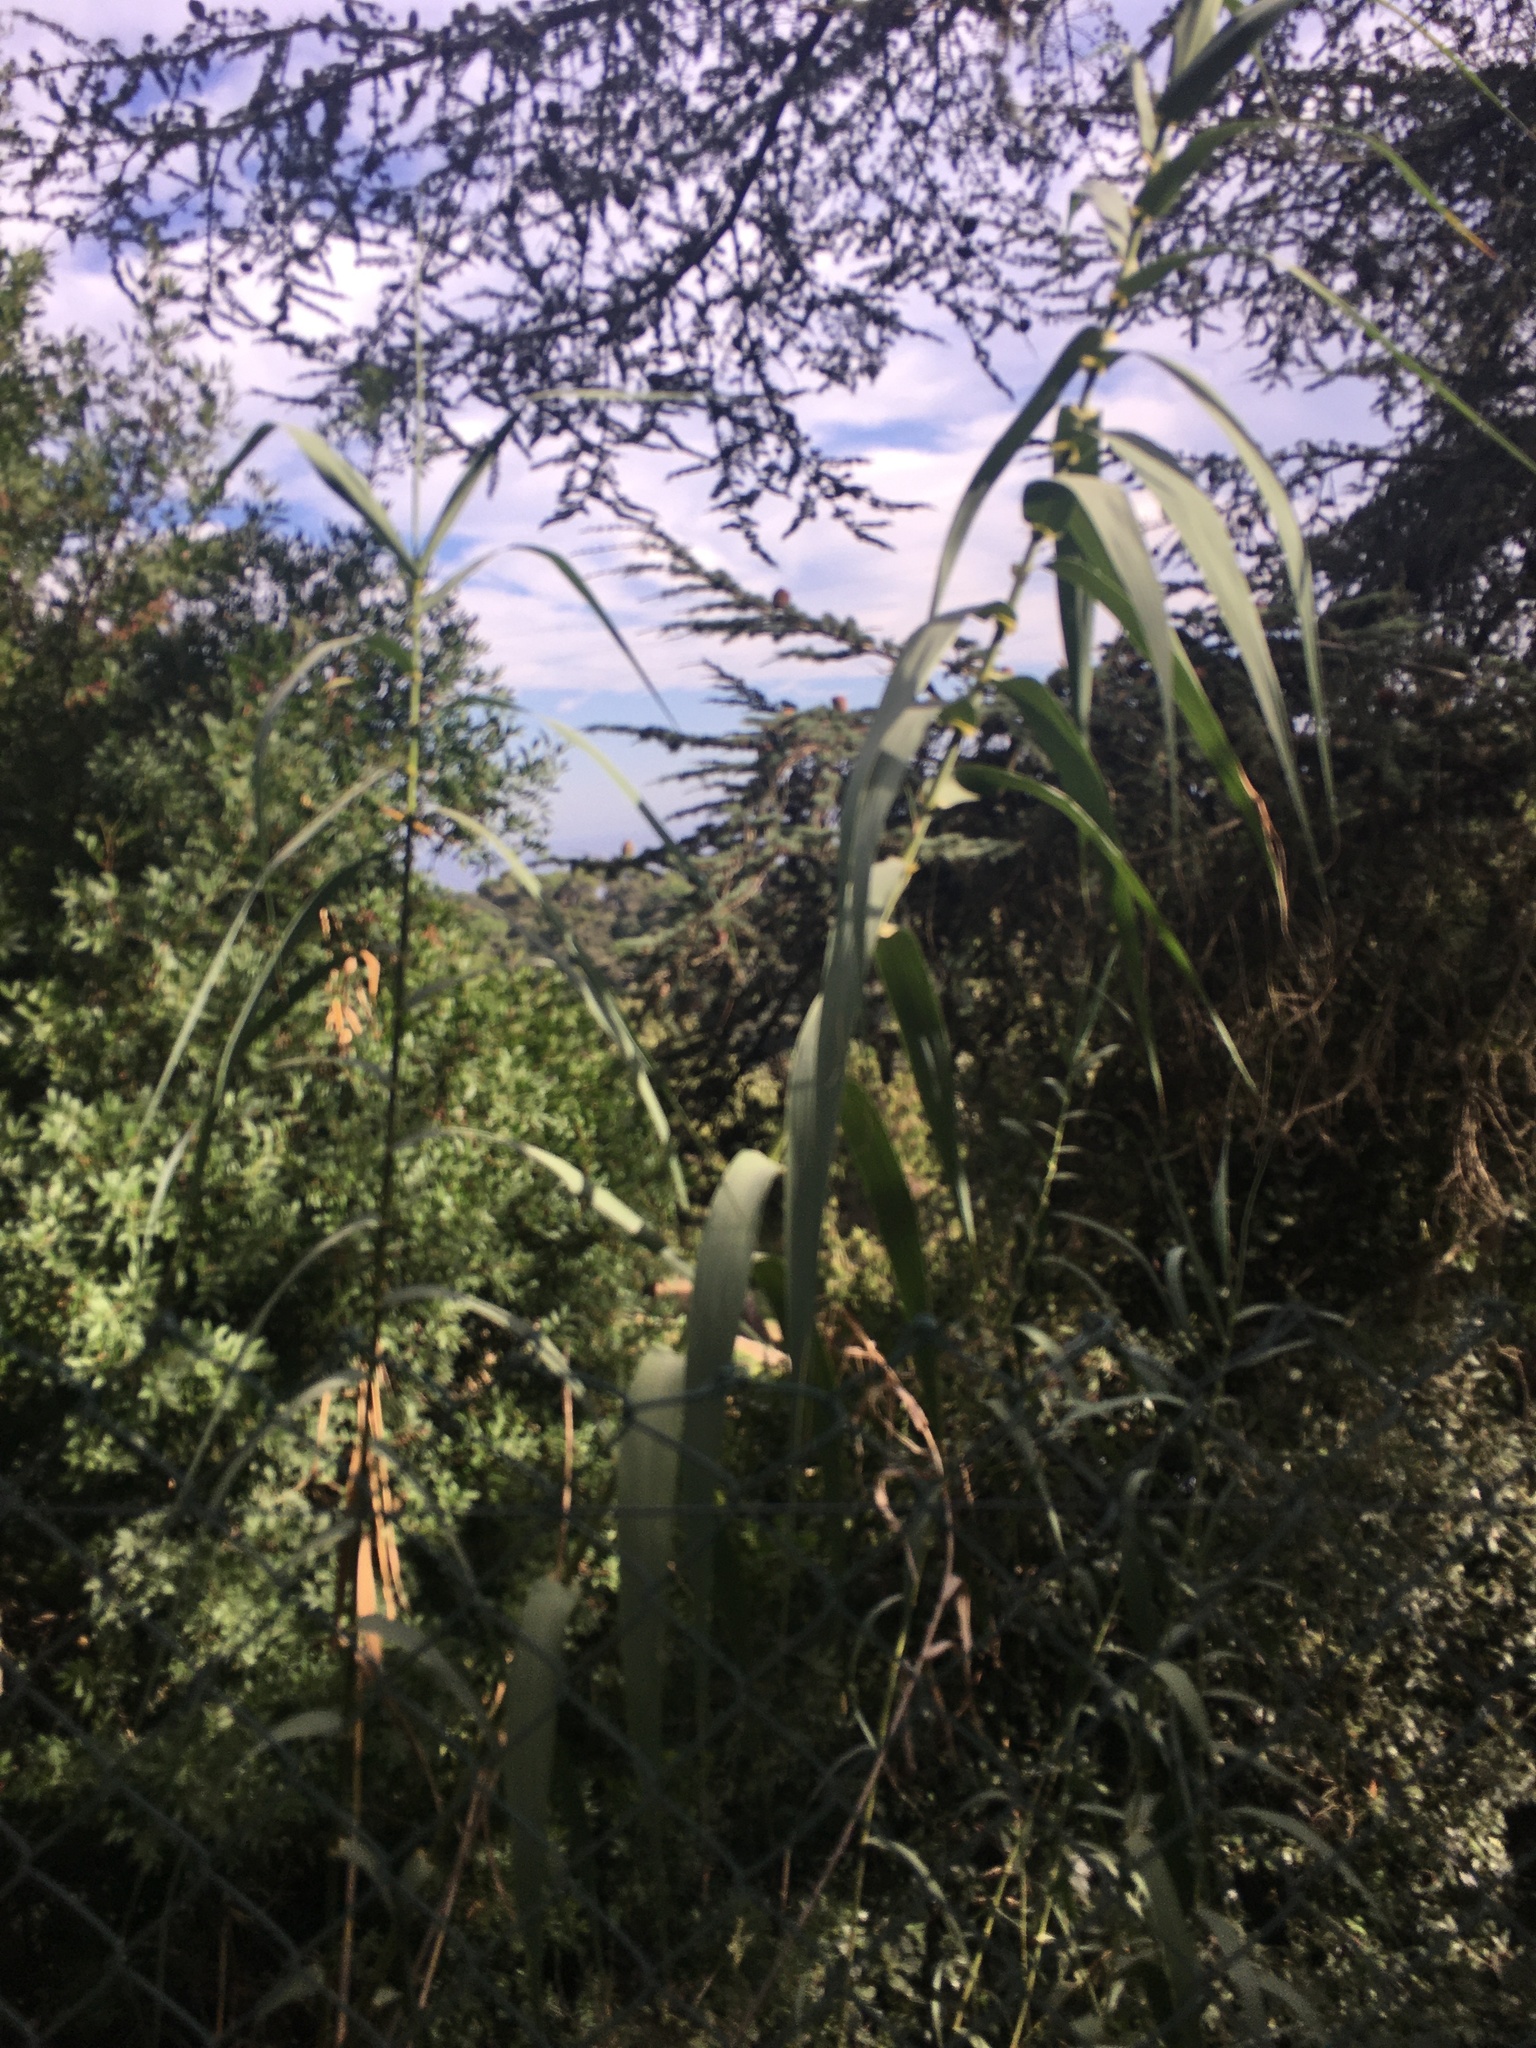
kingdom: Plantae
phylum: Tracheophyta
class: Liliopsida
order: Poales
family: Poaceae
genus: Arundo
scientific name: Arundo donax
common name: Giant reed
